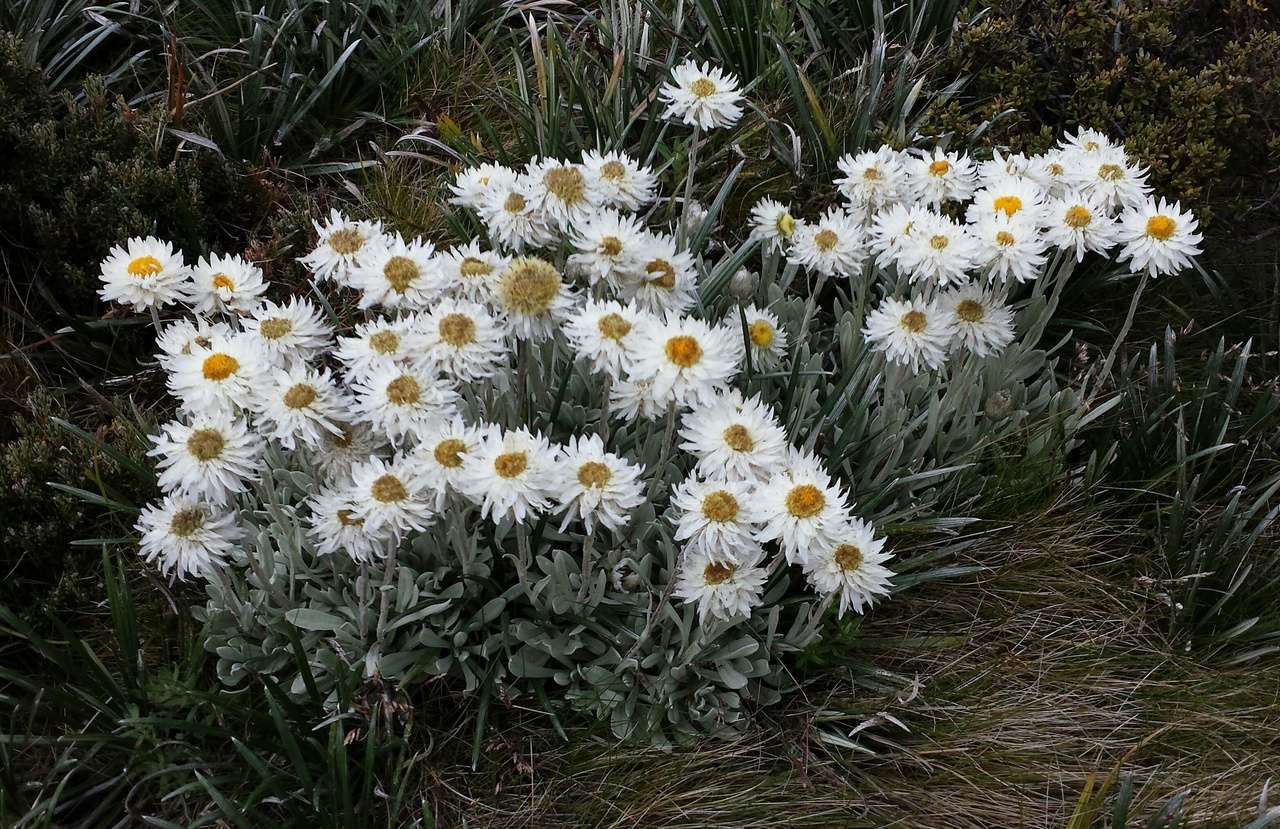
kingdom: Plantae
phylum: Tracheophyta
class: Magnoliopsida
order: Asterales
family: Asteraceae
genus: Leucochrysum
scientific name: Leucochrysum alpinum
